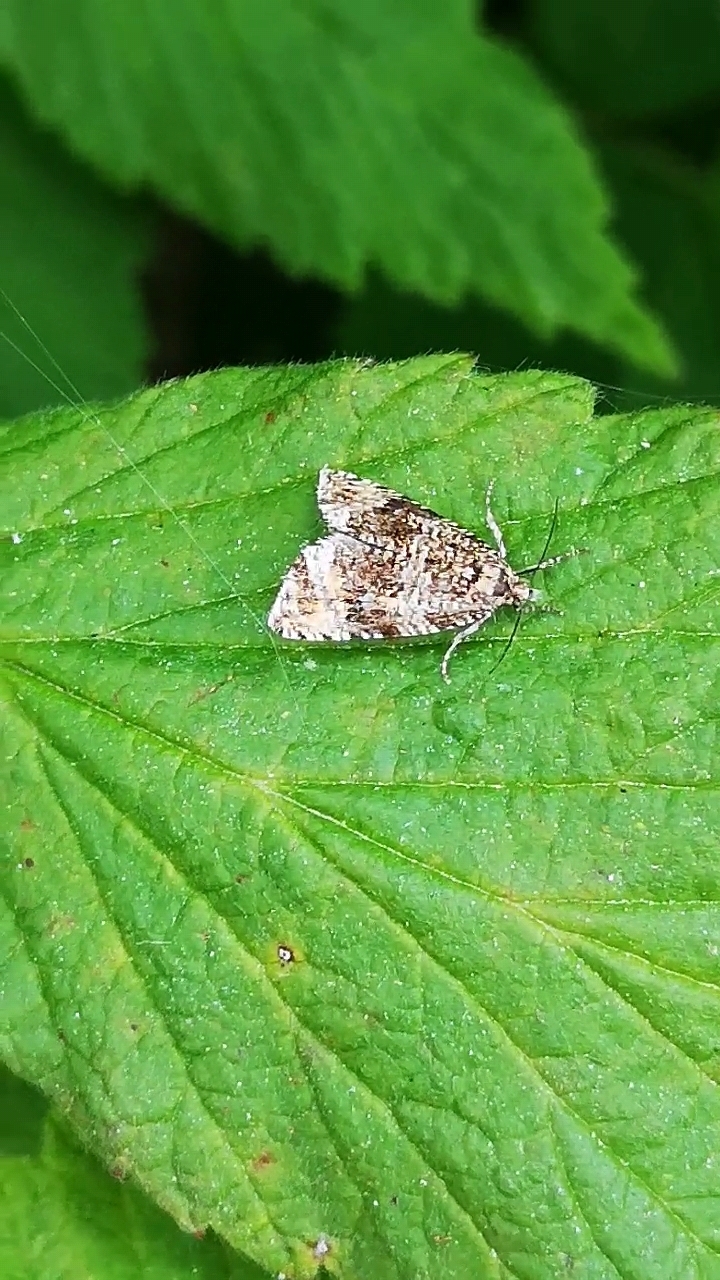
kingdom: Animalia
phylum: Arthropoda
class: Insecta
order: Lepidoptera
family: Tortricidae
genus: Syricoris
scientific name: Syricoris lacunana
